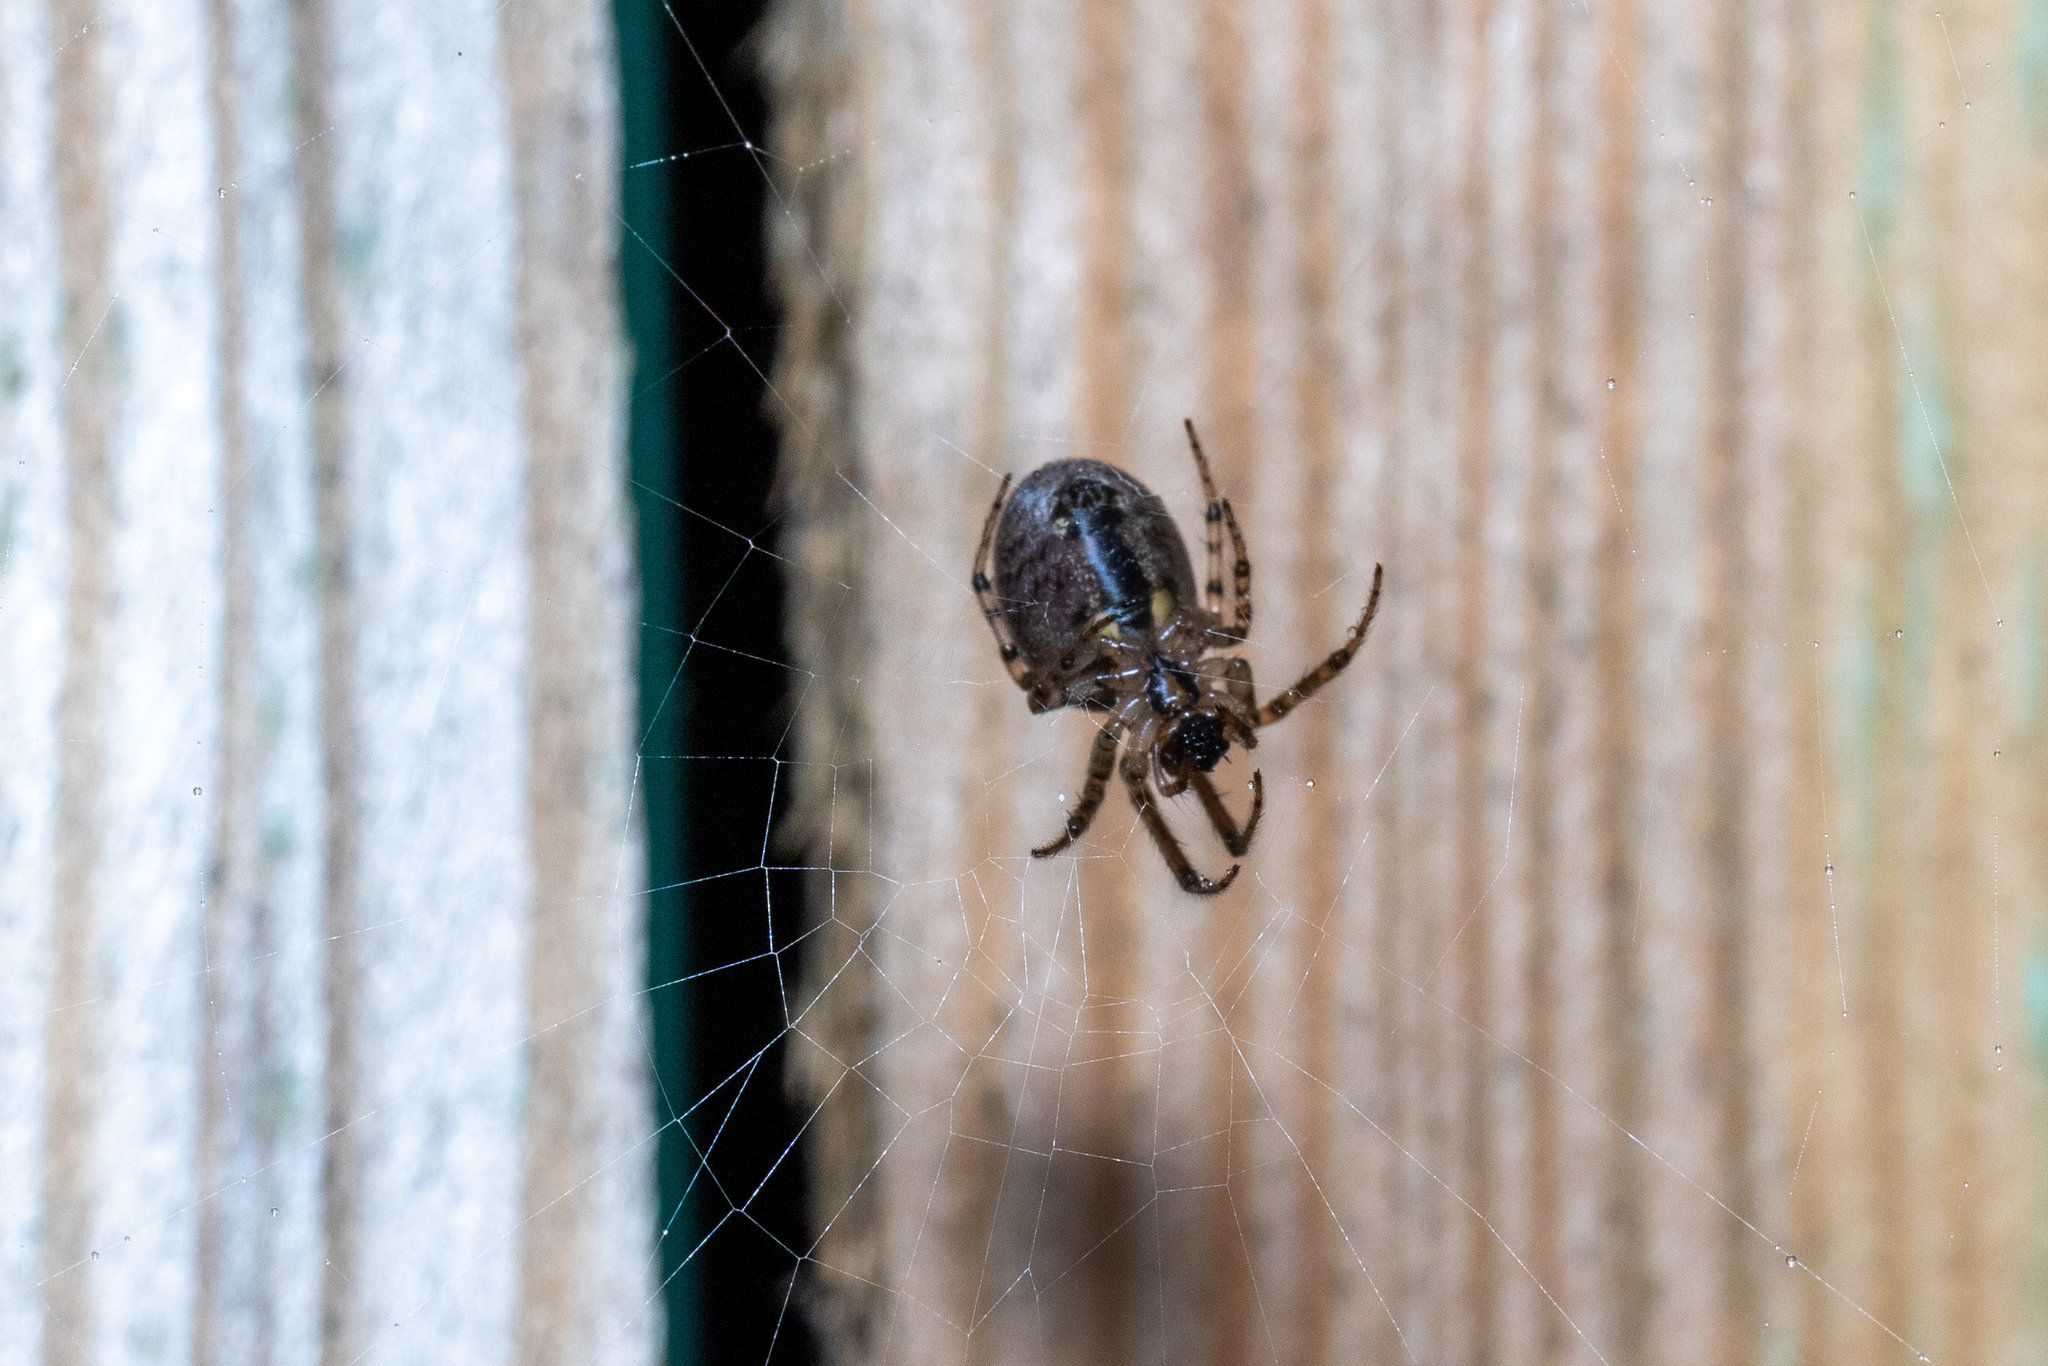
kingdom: Animalia
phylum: Arthropoda
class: Arachnida
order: Araneae
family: Araneidae
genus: Zygiella
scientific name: Zygiella x-notata
